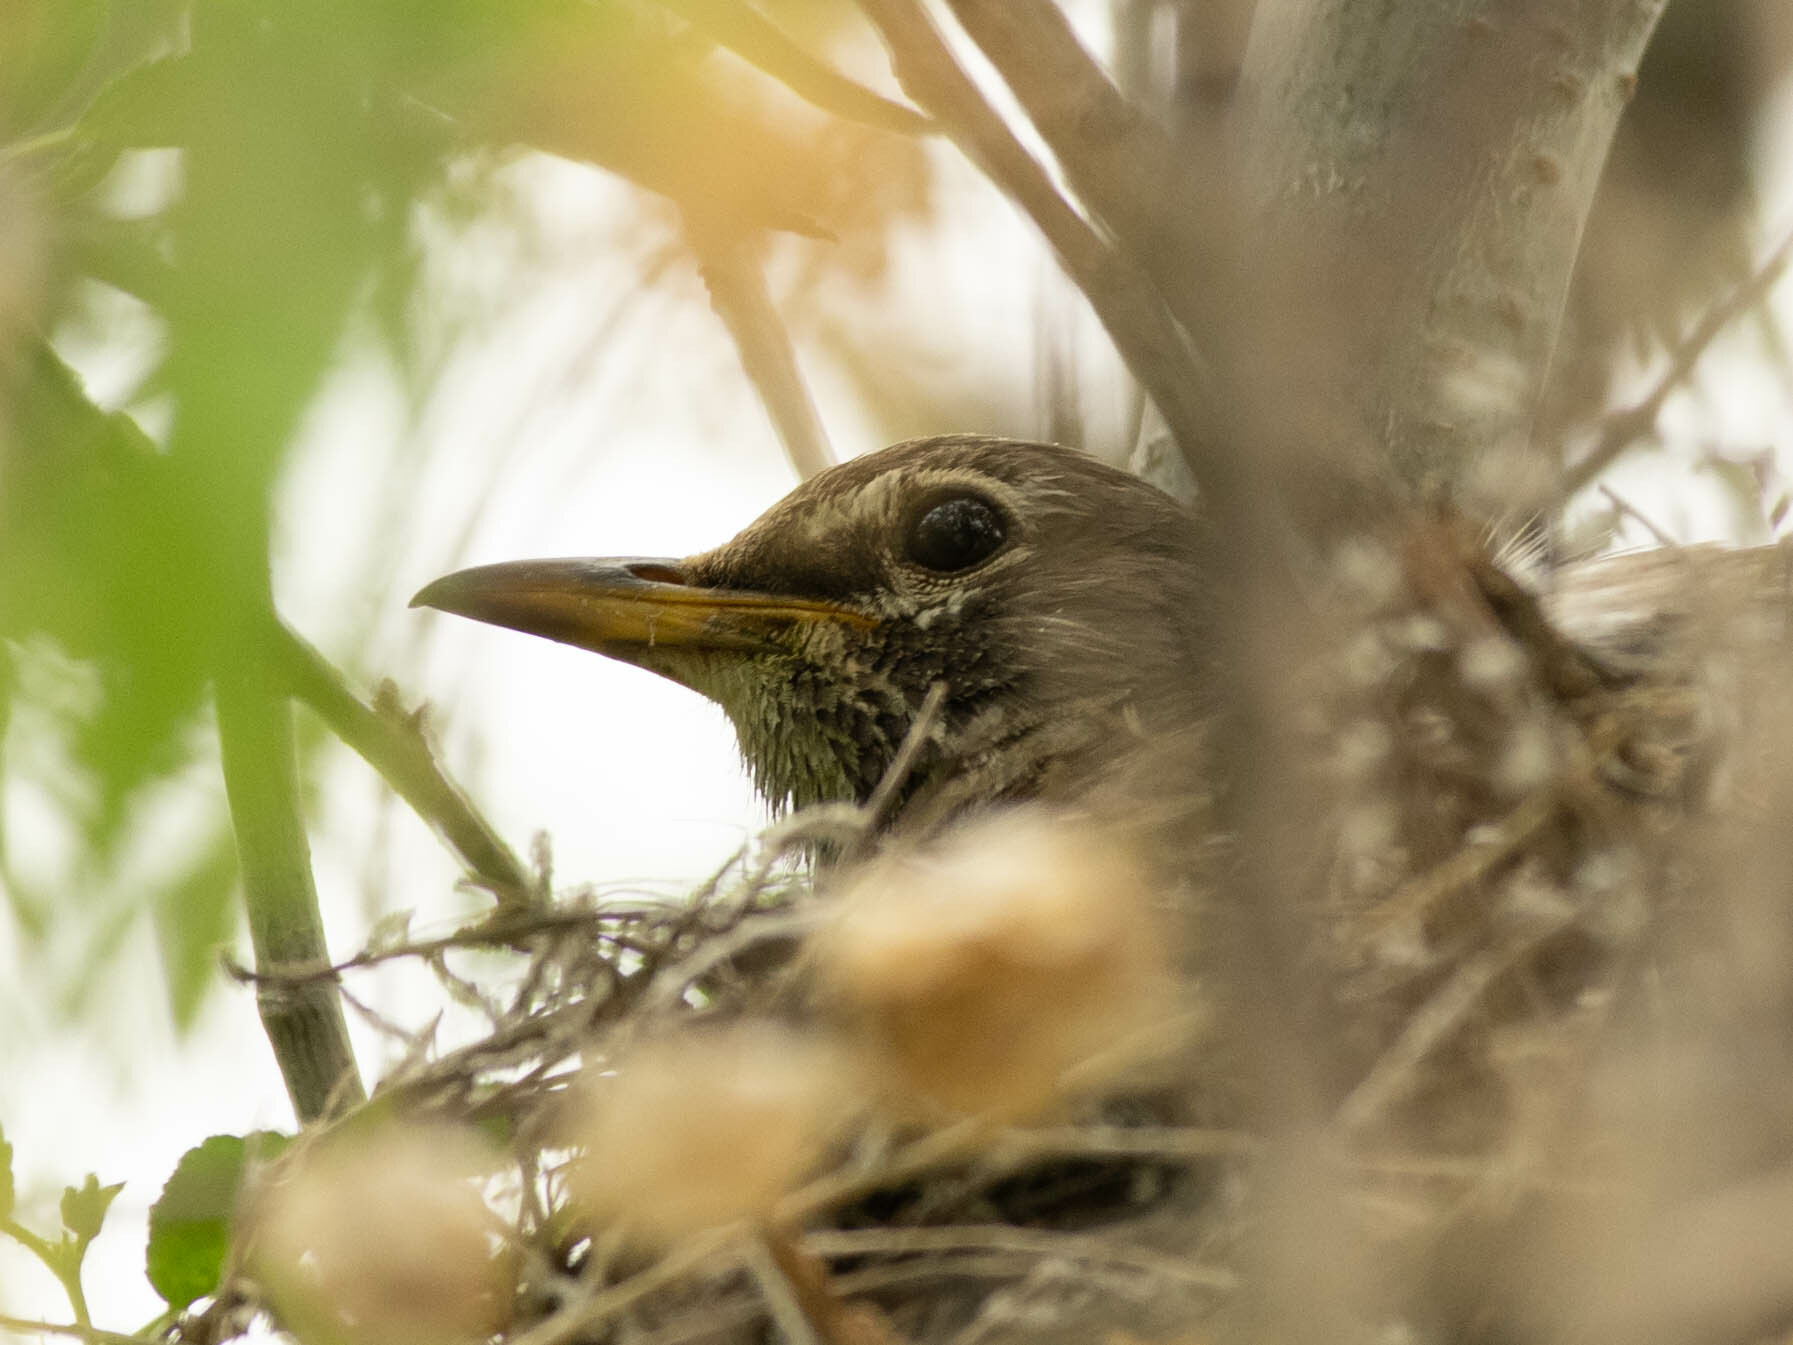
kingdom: Animalia
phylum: Chordata
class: Aves
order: Passeriformes
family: Turdidae
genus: Turdus
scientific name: Turdus migratorius
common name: American robin
